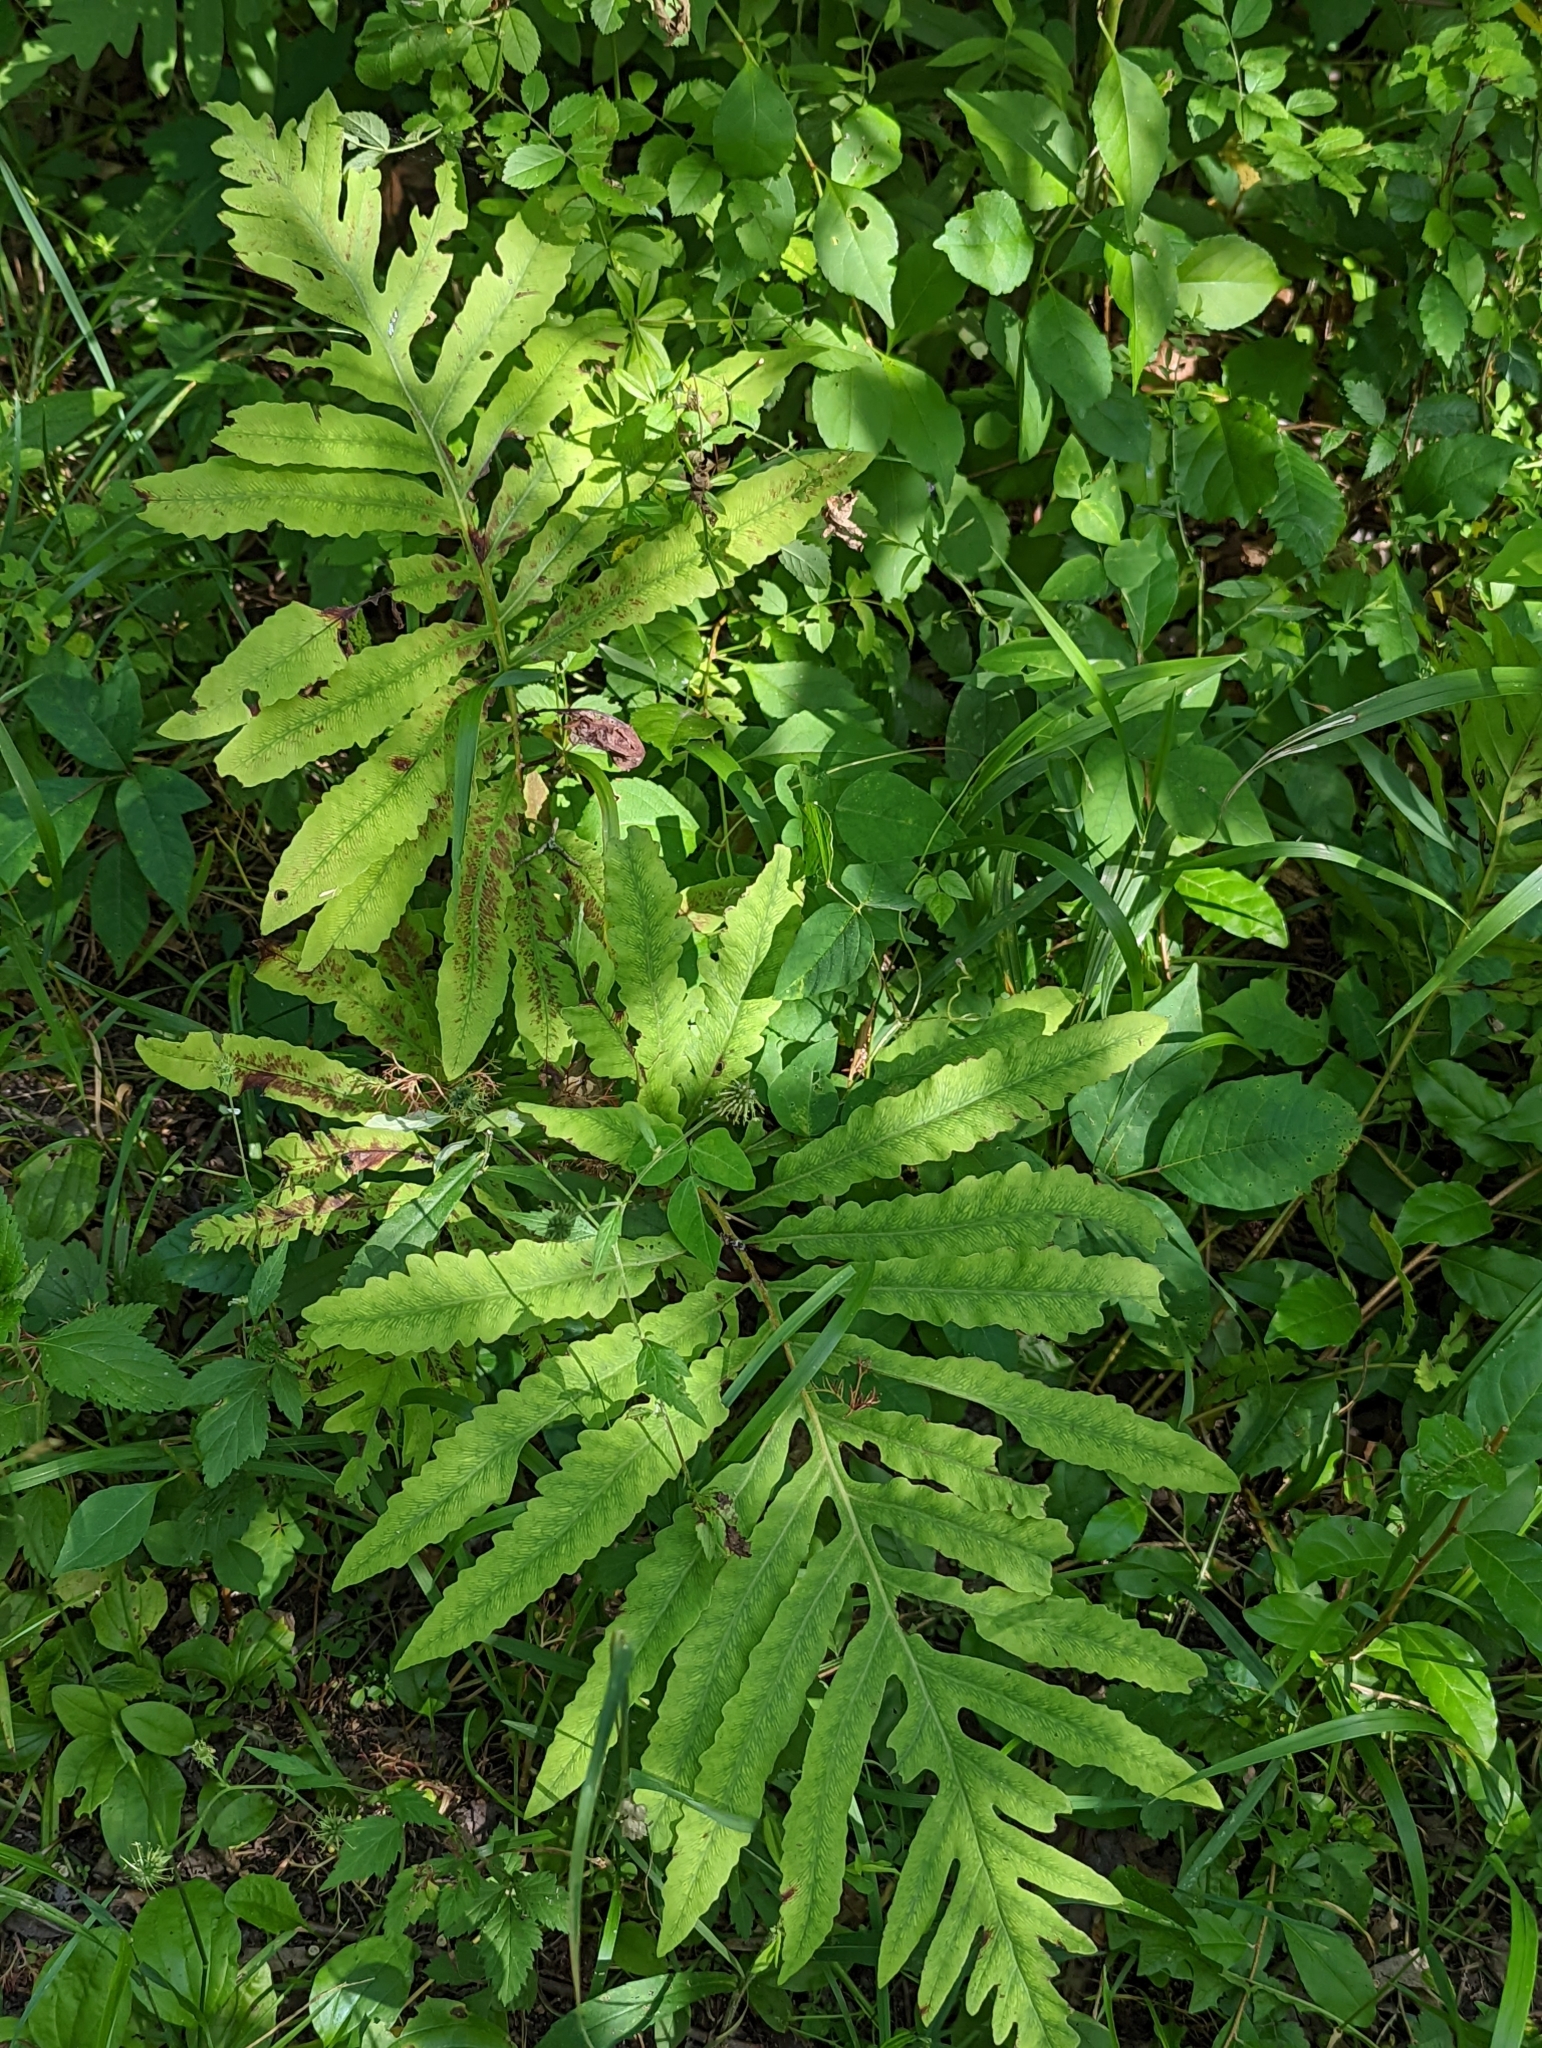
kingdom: Plantae
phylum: Tracheophyta
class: Polypodiopsida
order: Polypodiales
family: Onocleaceae
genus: Onoclea
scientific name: Onoclea sensibilis
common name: Sensitive fern
